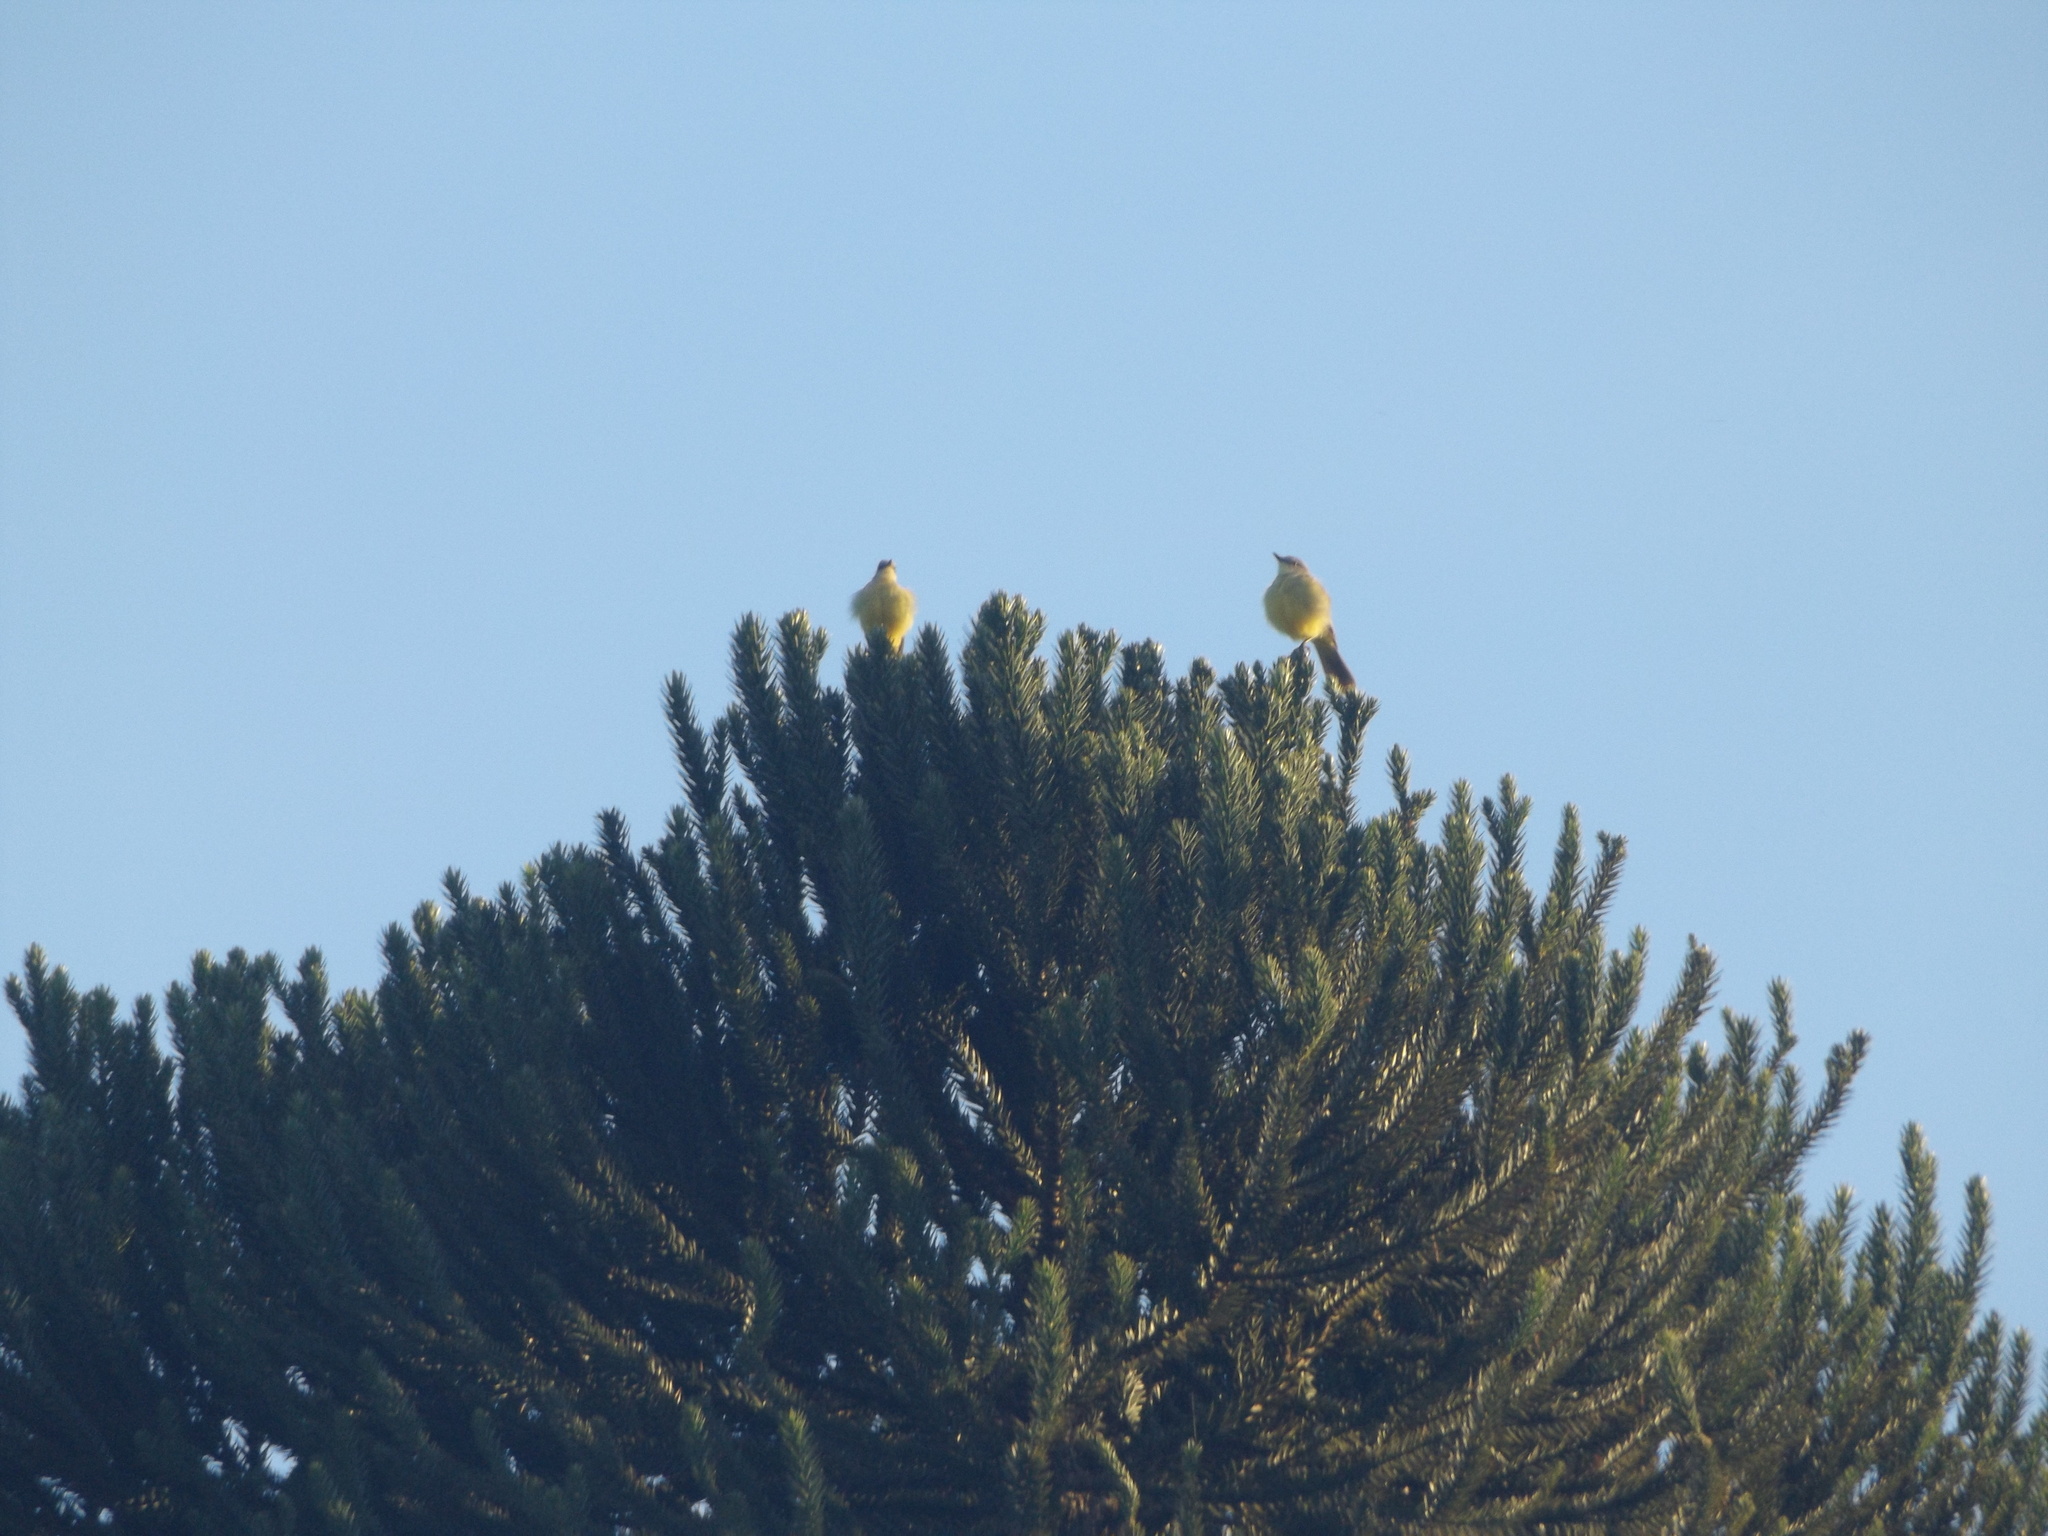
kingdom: Animalia
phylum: Chordata
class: Aves
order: Passeriformes
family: Tyrannidae
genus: Machetornis
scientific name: Machetornis rixosa
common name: Cattle tyrant
